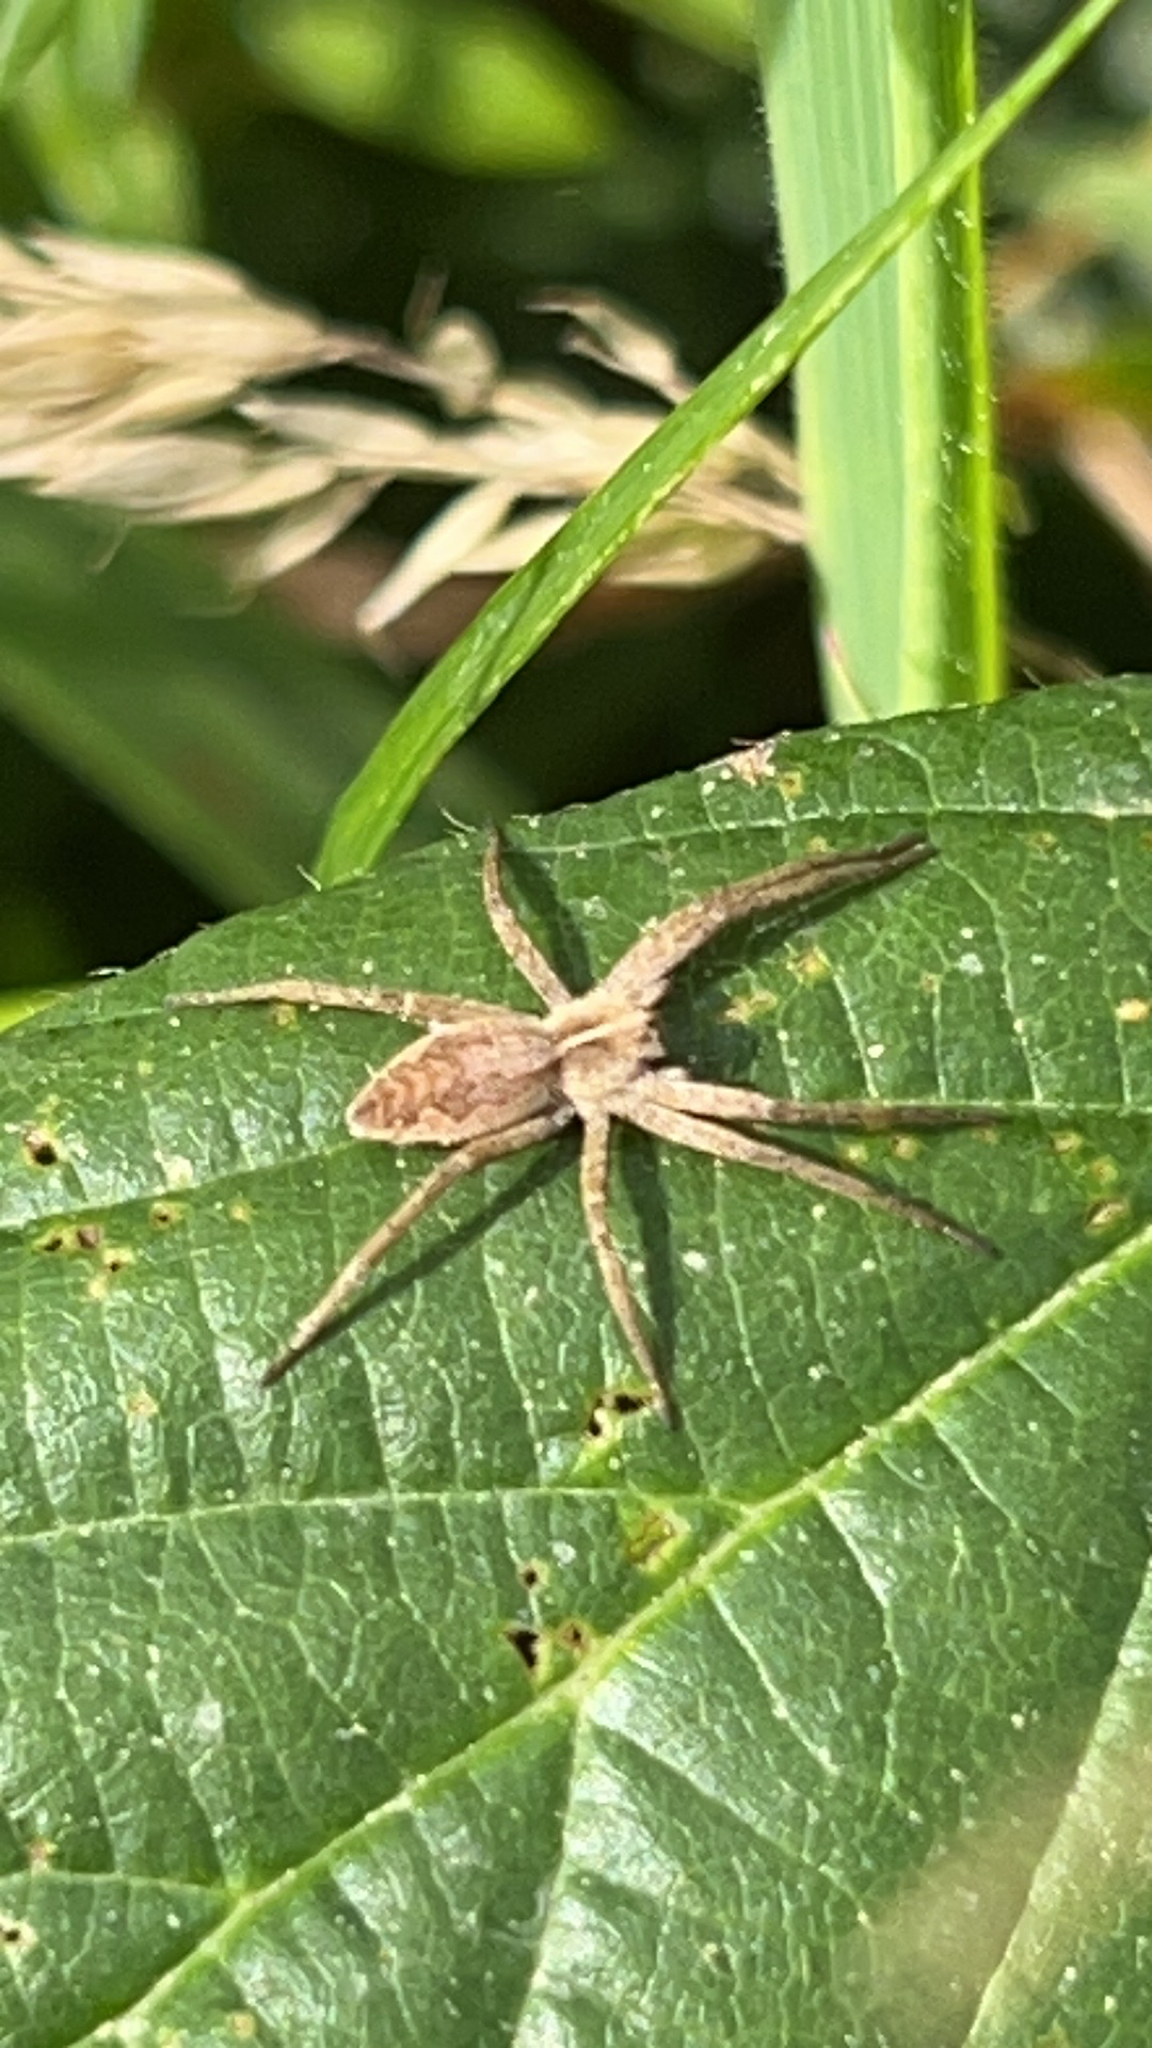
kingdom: Animalia
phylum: Arthropoda
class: Arachnida
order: Araneae
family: Pisauridae
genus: Pisaura
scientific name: Pisaura mirabilis
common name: Tent spider
